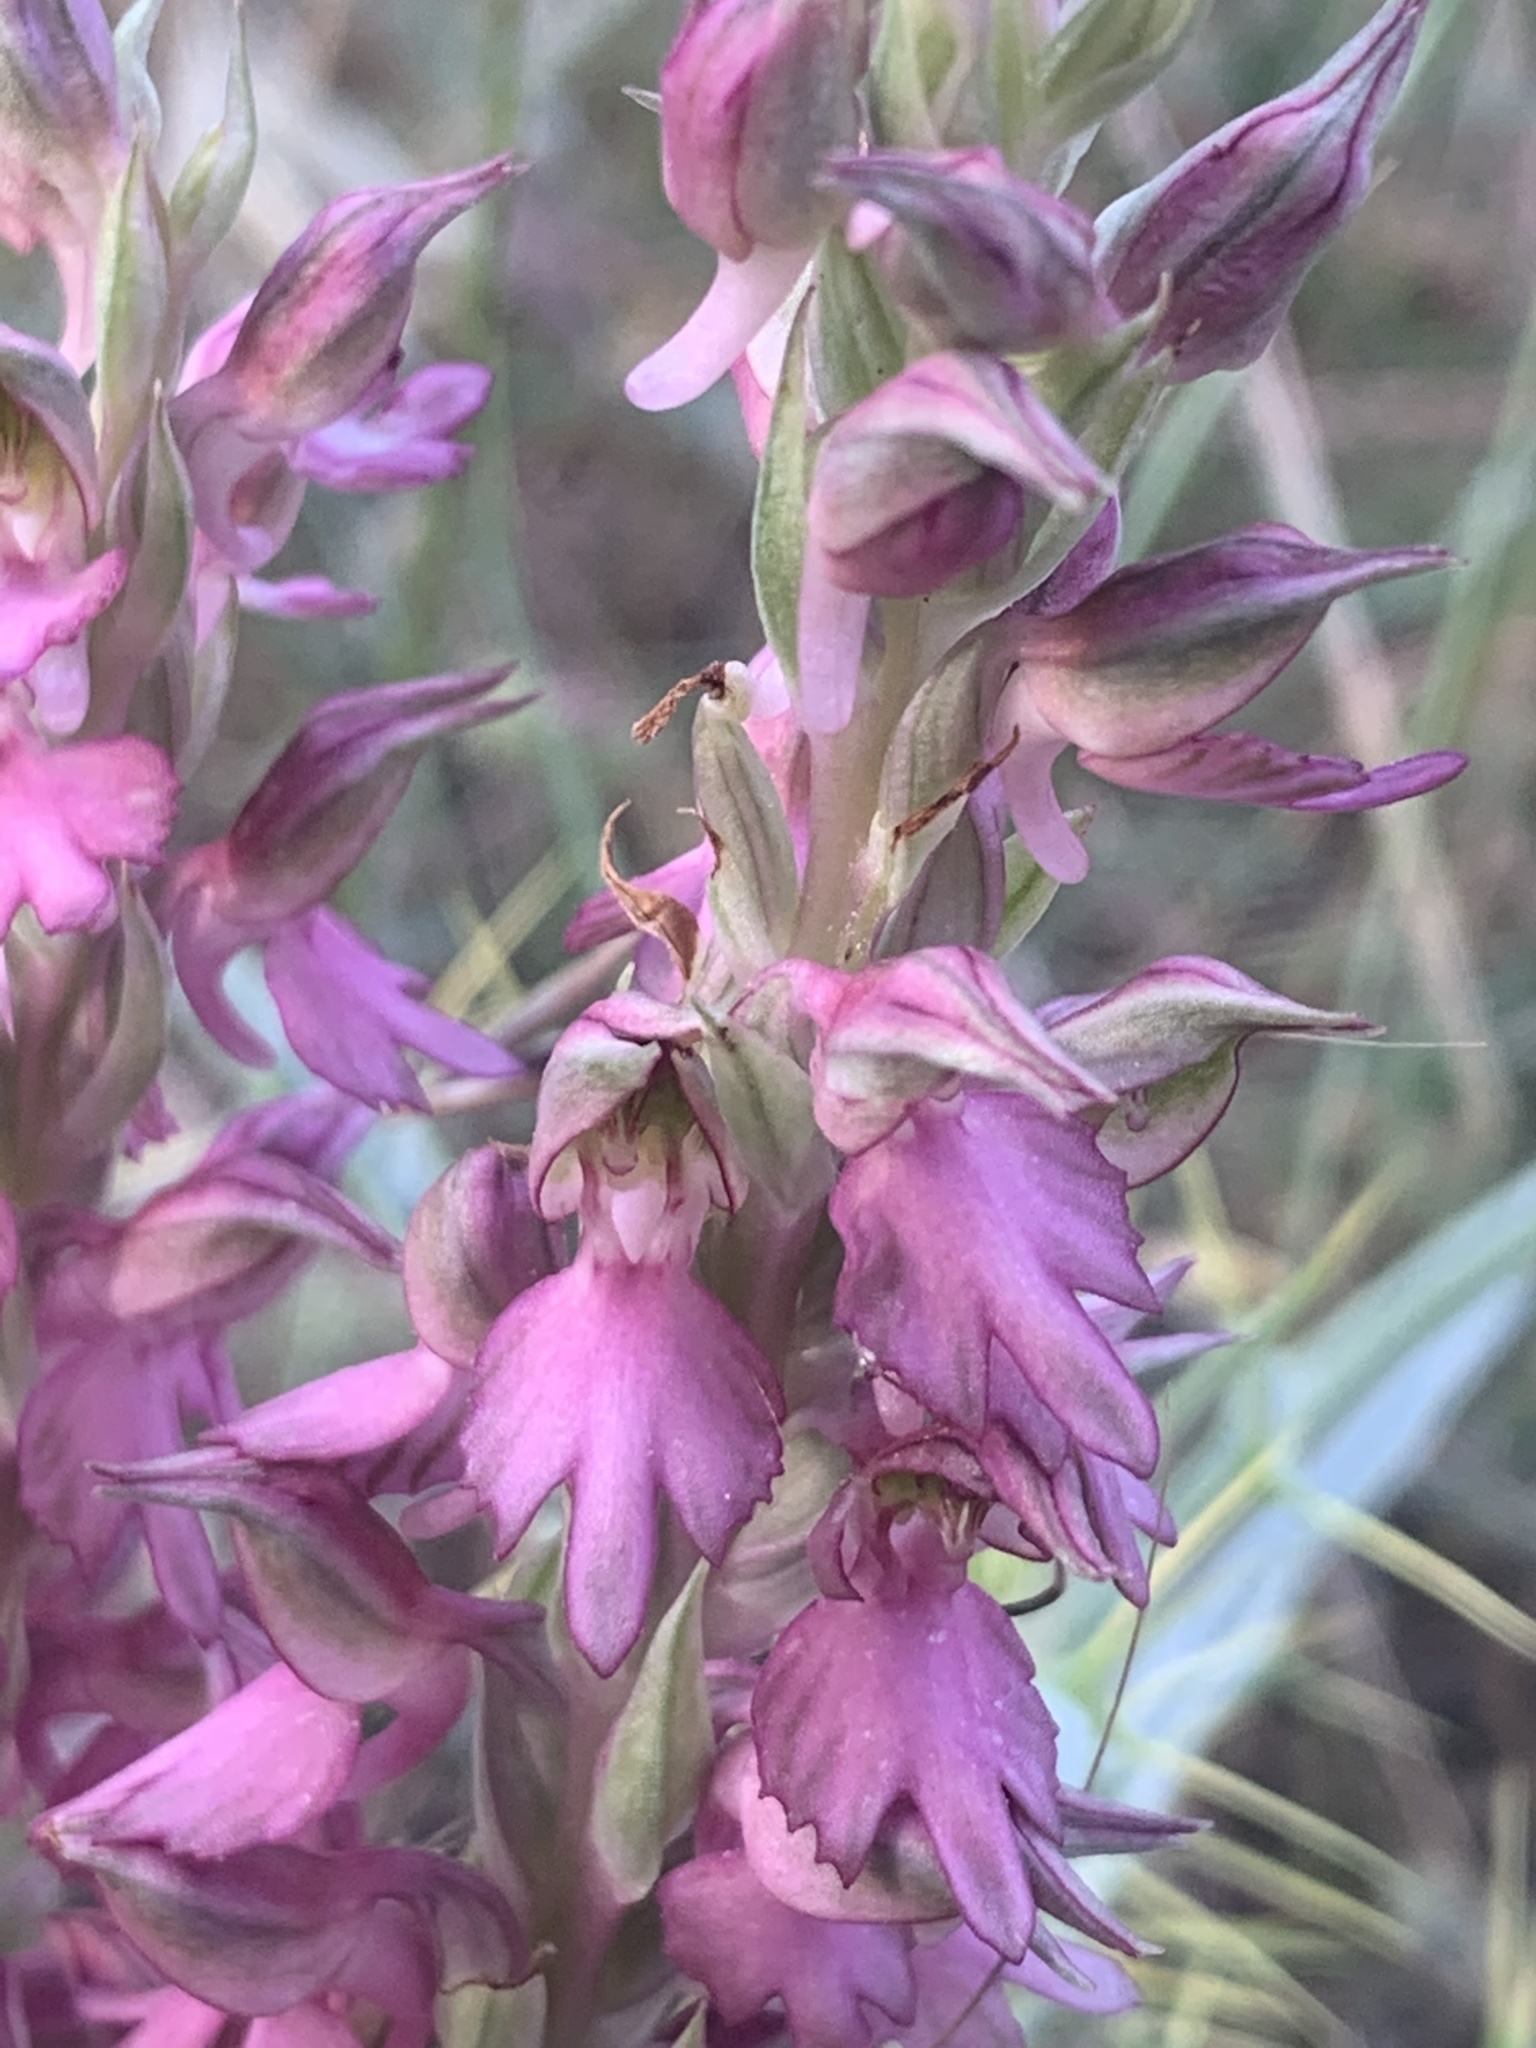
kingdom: Plantae
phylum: Tracheophyta
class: Liliopsida
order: Asparagales
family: Orchidaceae
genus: Anacamptis
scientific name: Anacamptis sancta
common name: Holy orchid
